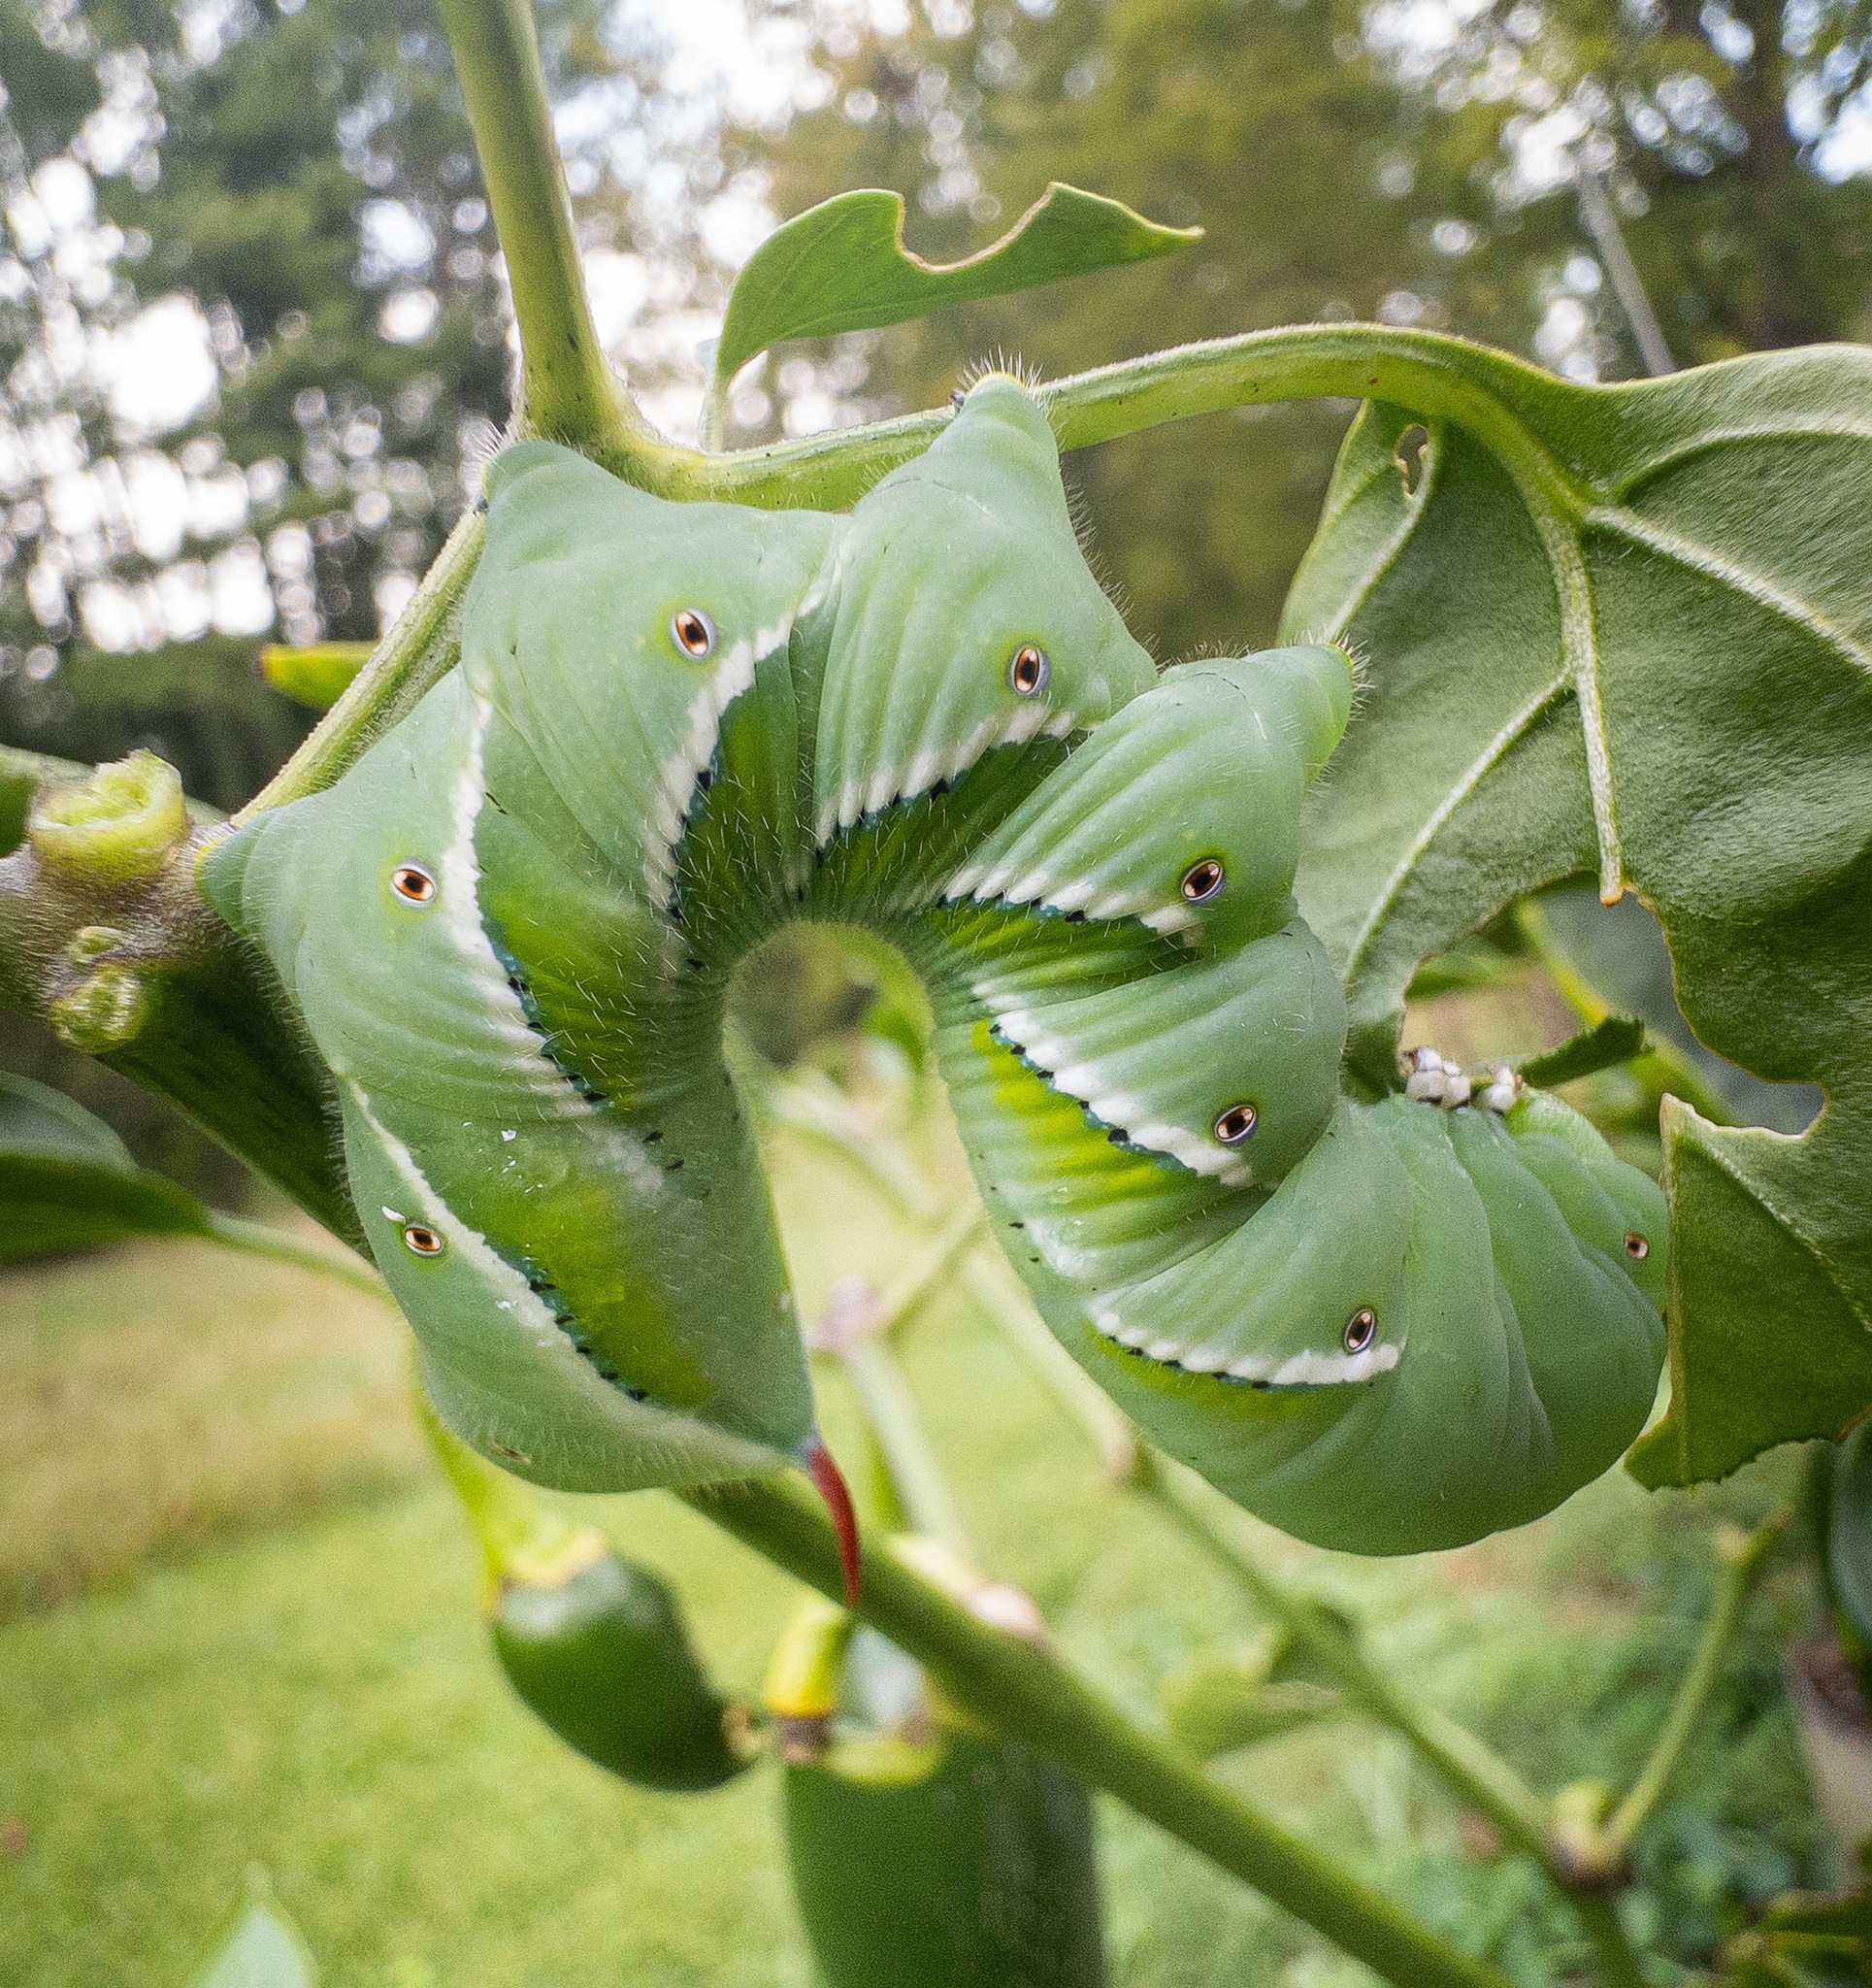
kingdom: Animalia
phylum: Arthropoda
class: Insecta
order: Lepidoptera
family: Sphingidae
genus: Manduca
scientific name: Manduca sexta
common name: Carolina sphinx
